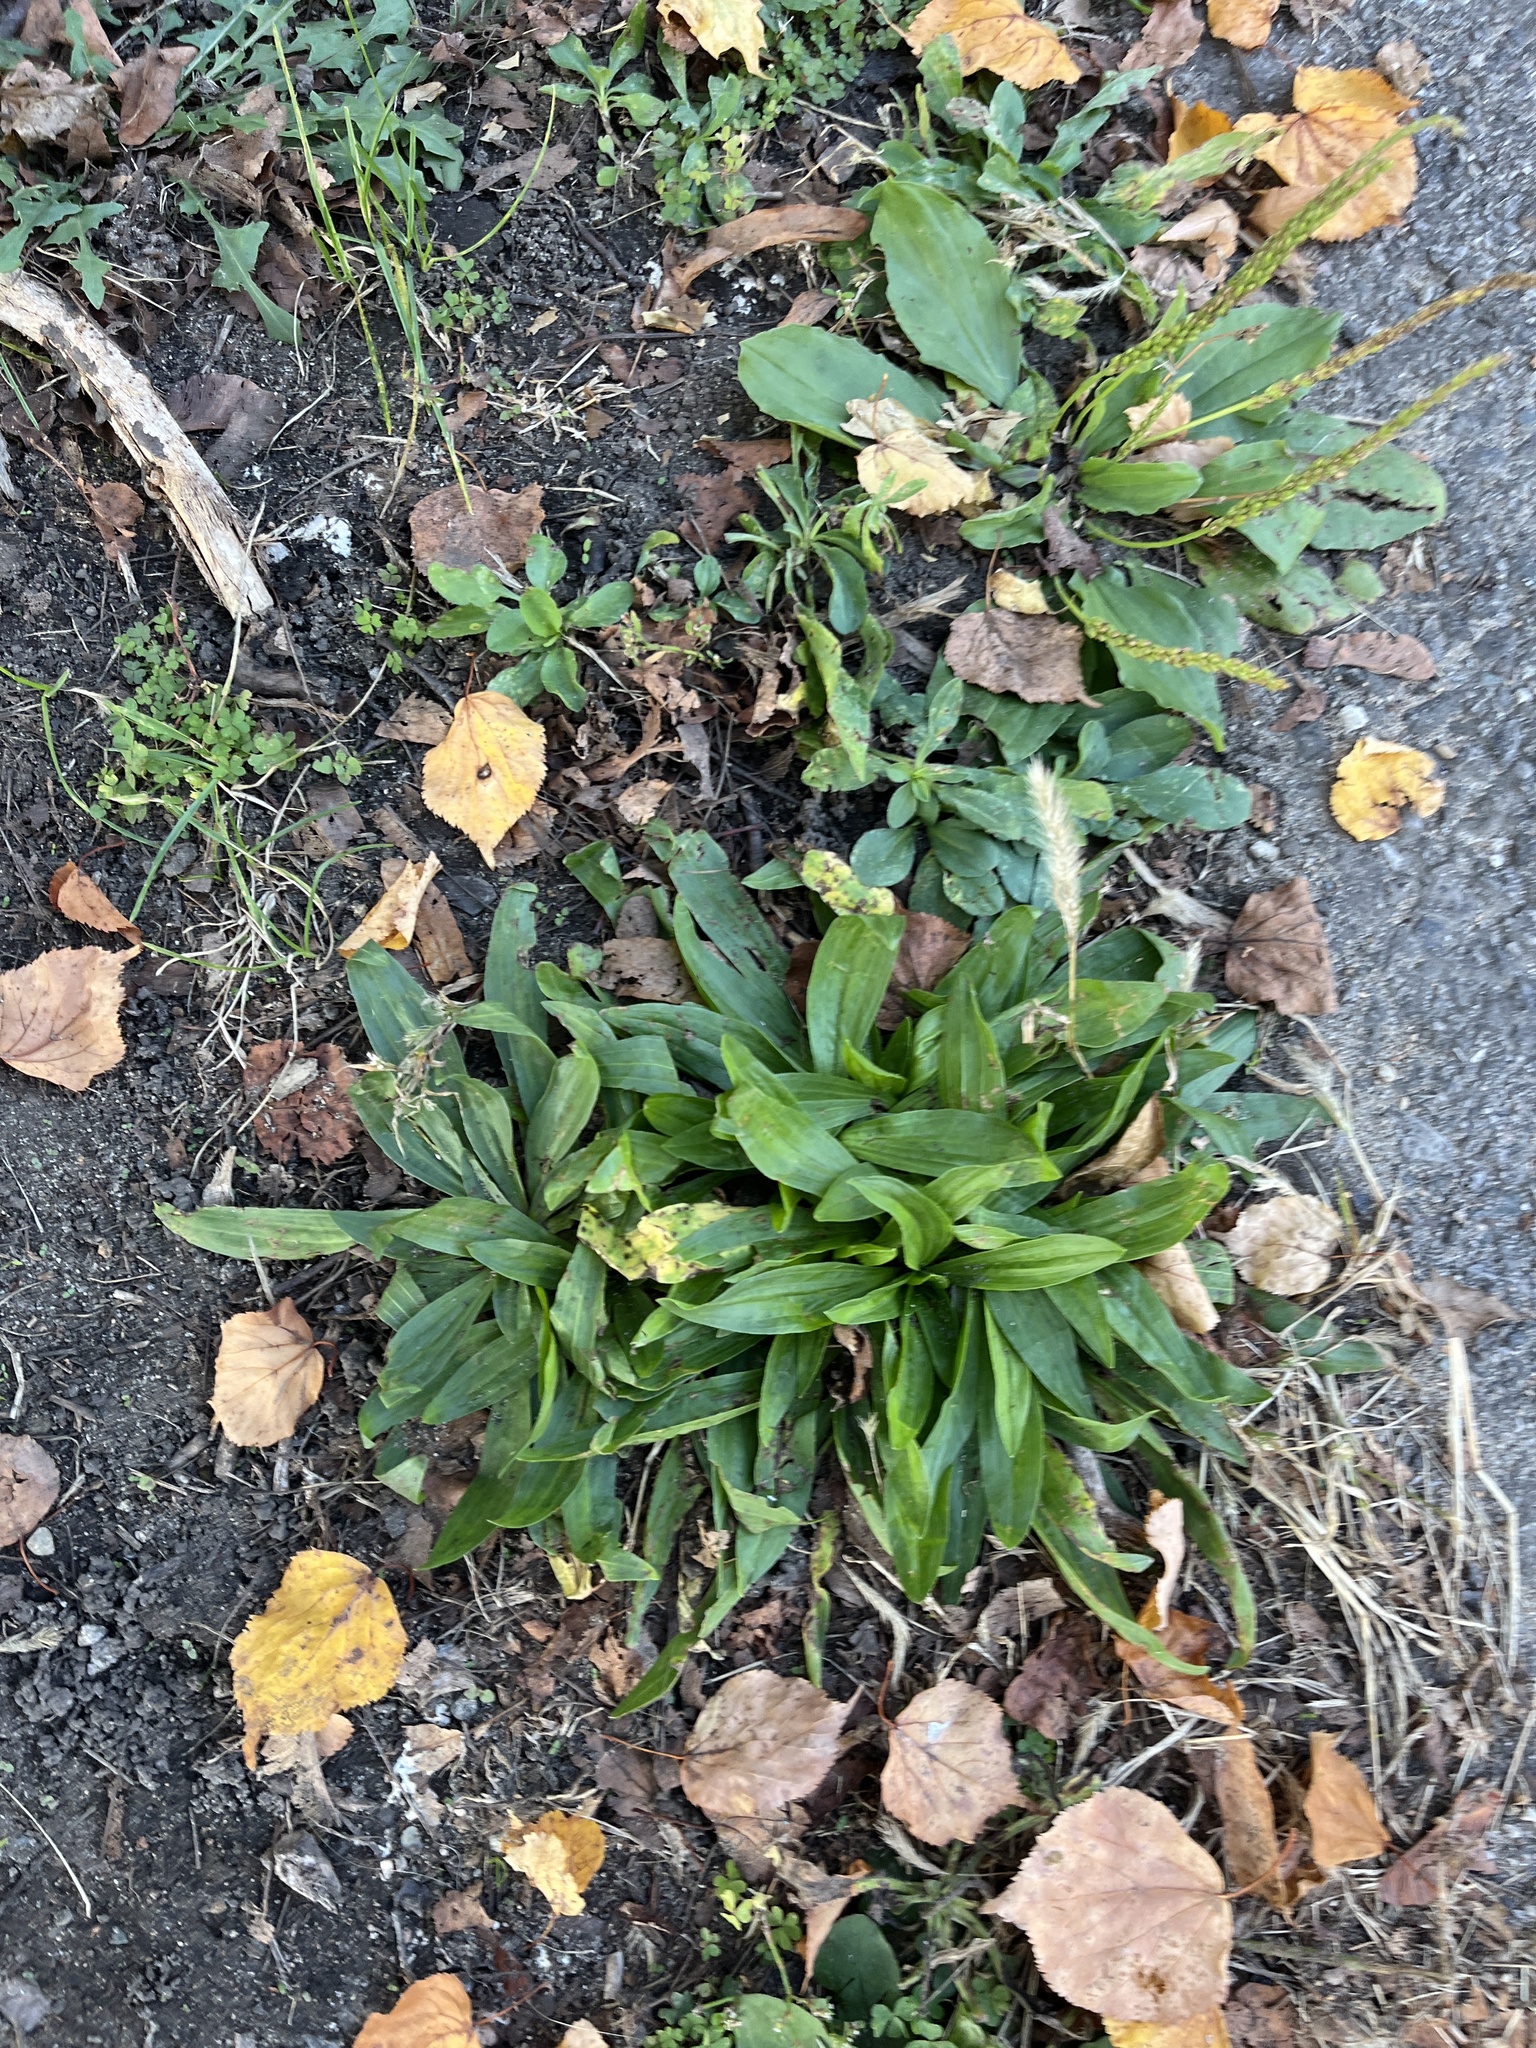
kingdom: Plantae
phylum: Tracheophyta
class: Magnoliopsida
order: Lamiales
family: Plantaginaceae
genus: Plantago
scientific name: Plantago lanceolata
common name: Ribwort plantain
